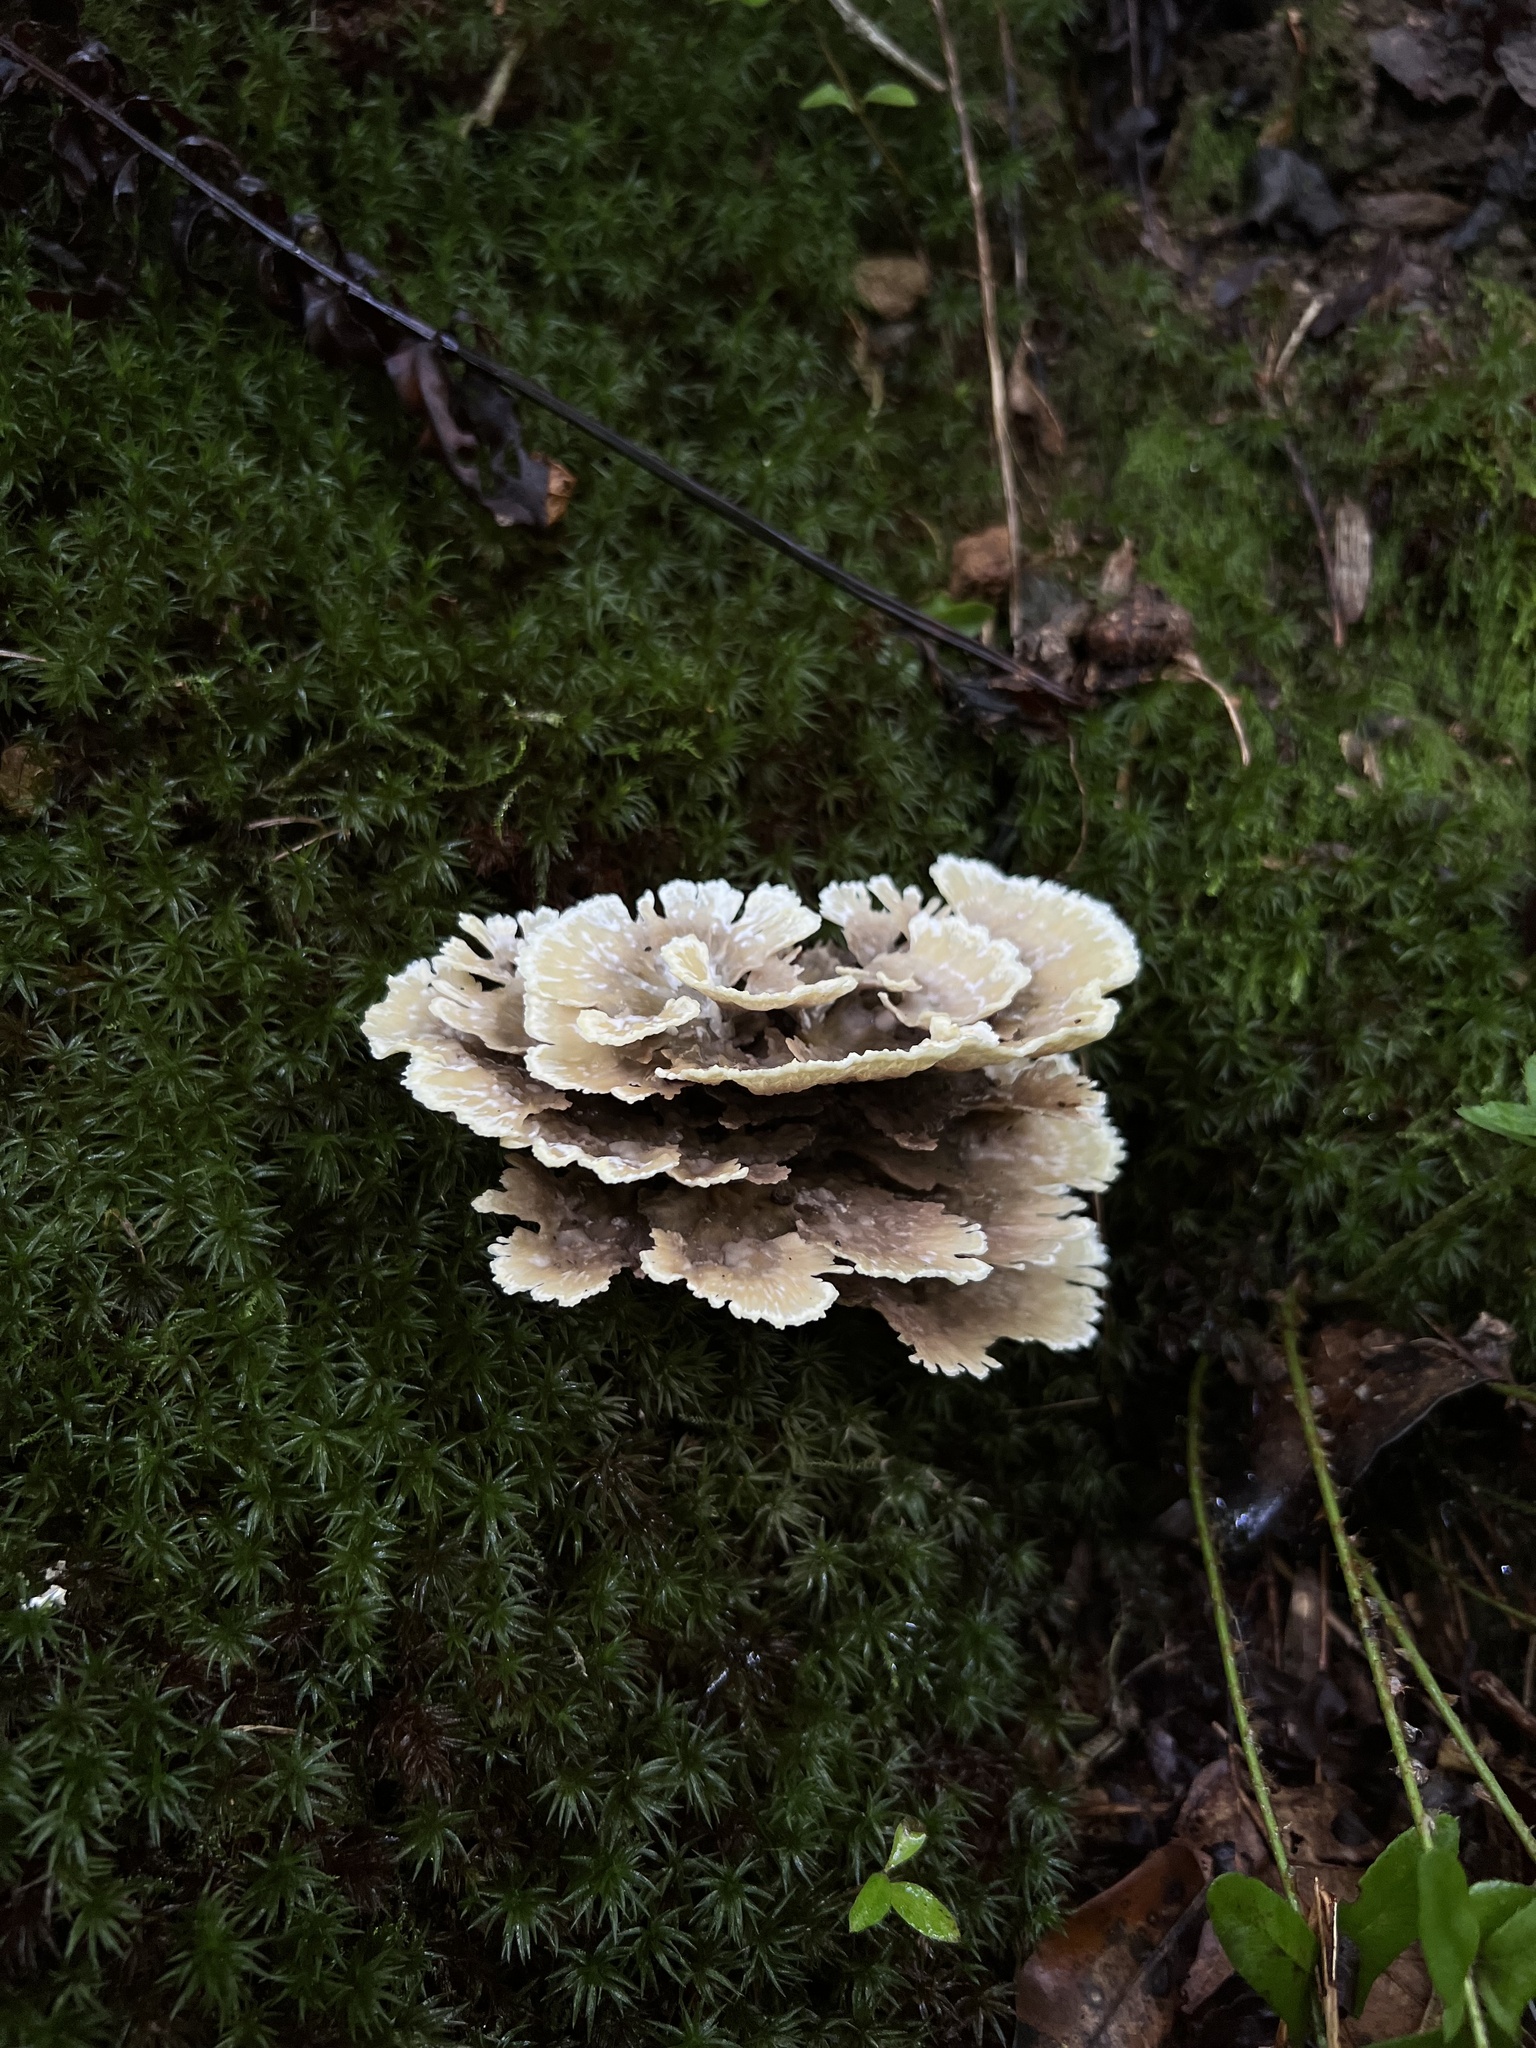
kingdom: Fungi
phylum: Basidiomycota
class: Agaricomycetes
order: Thelephorales
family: Thelephoraceae
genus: Thelephora
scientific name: Thelephora vialis
